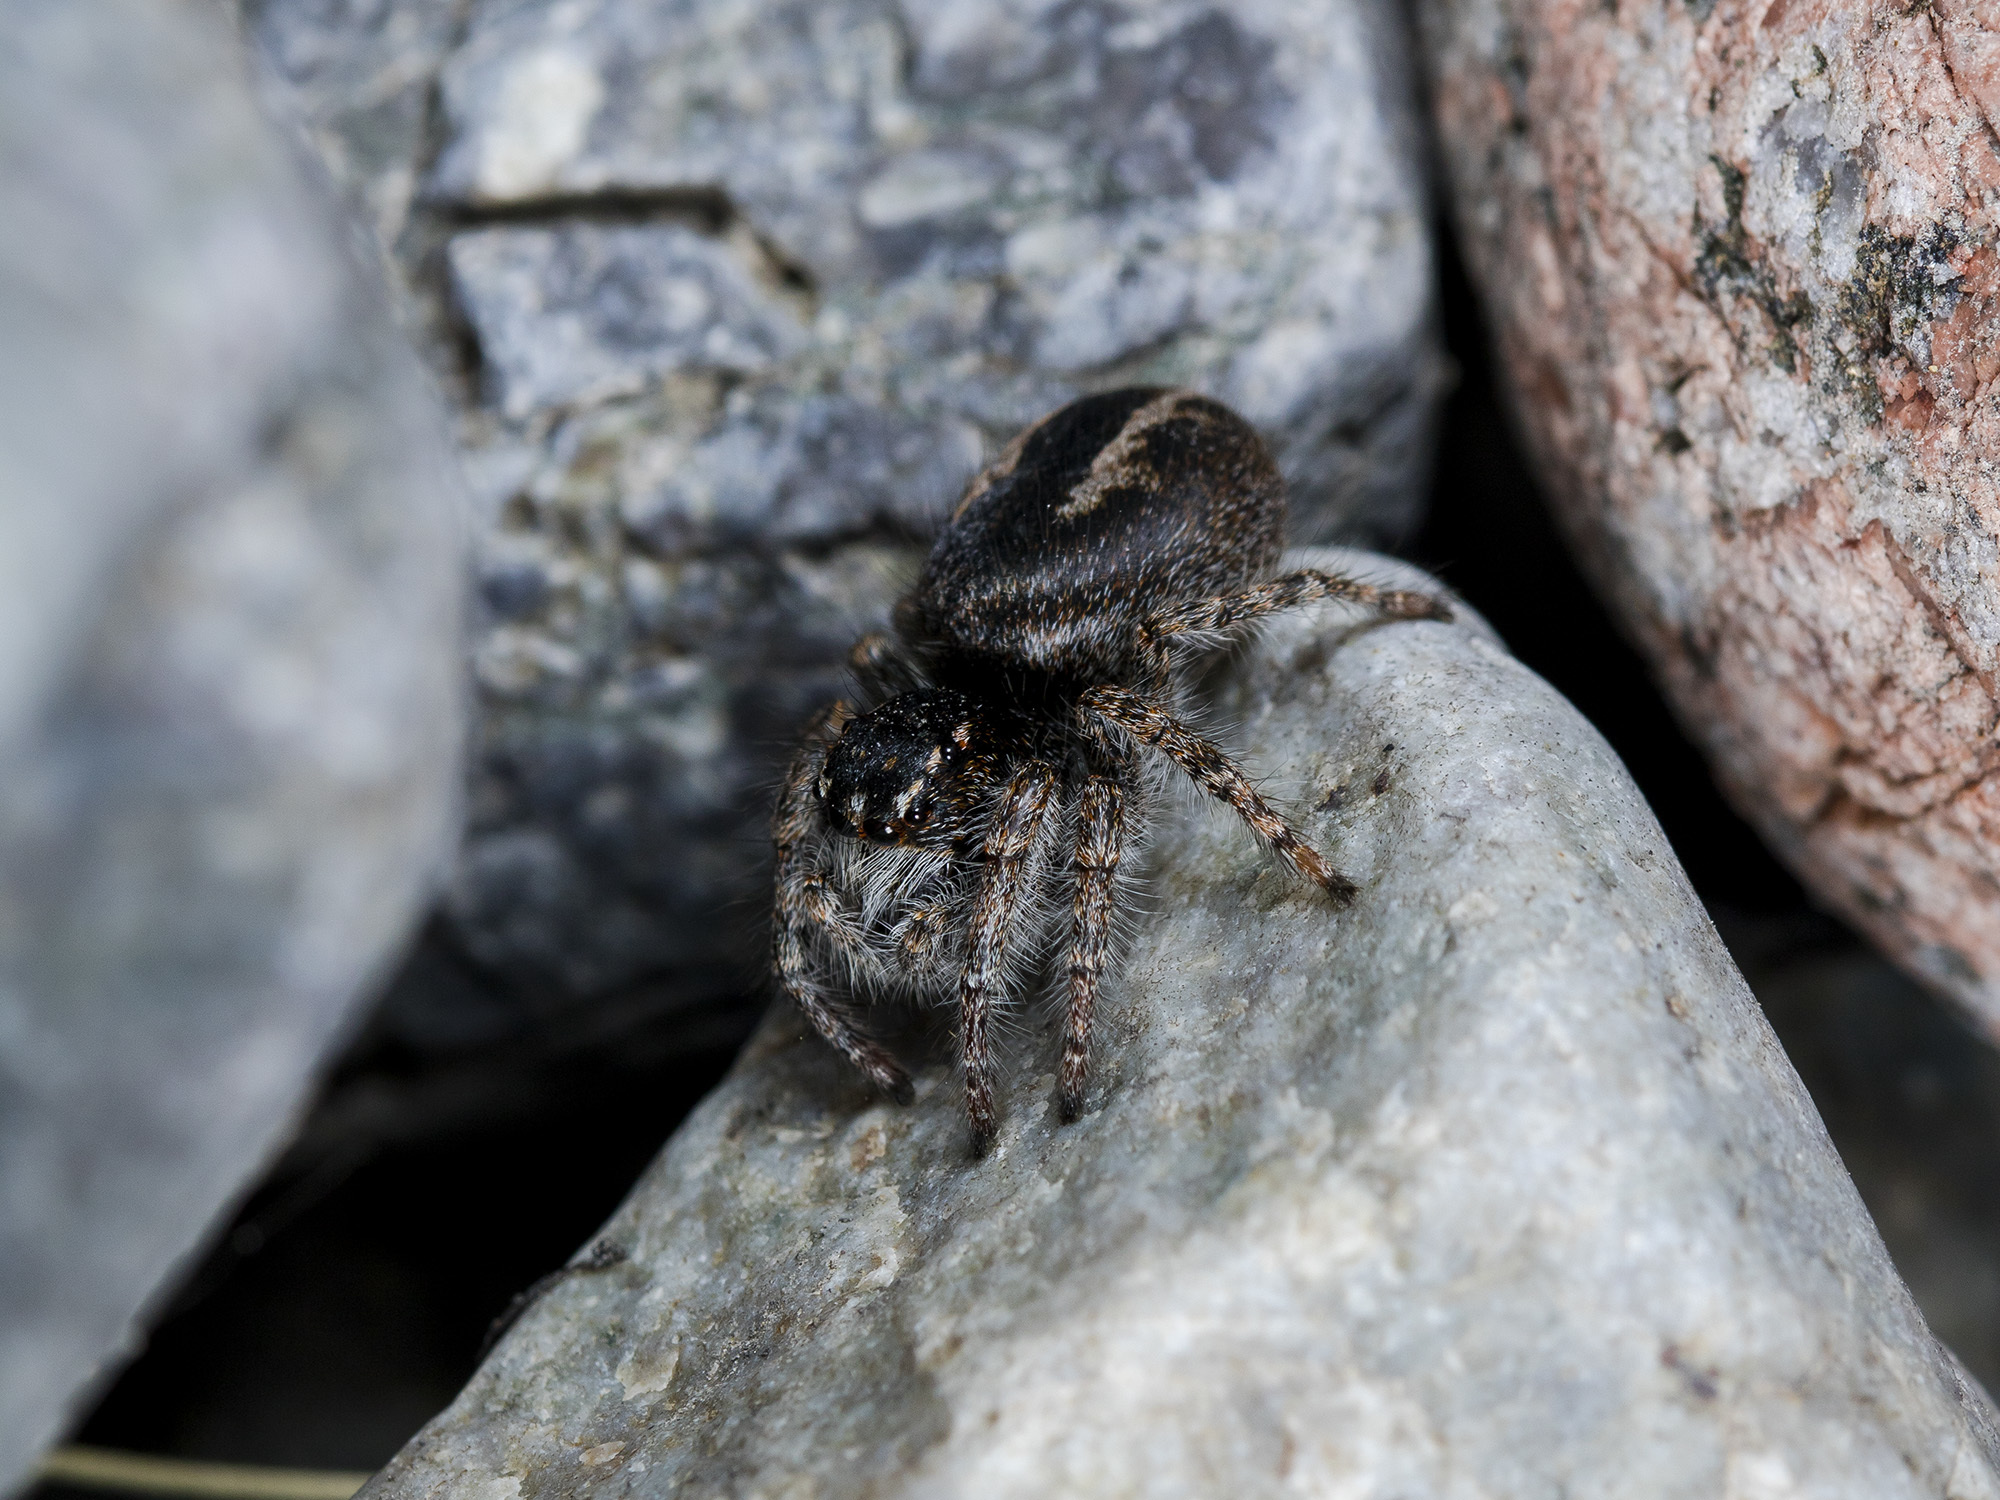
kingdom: Animalia
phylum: Arthropoda
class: Arachnida
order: Araneae
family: Salticidae
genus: Philaeus
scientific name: Philaeus chrysops
